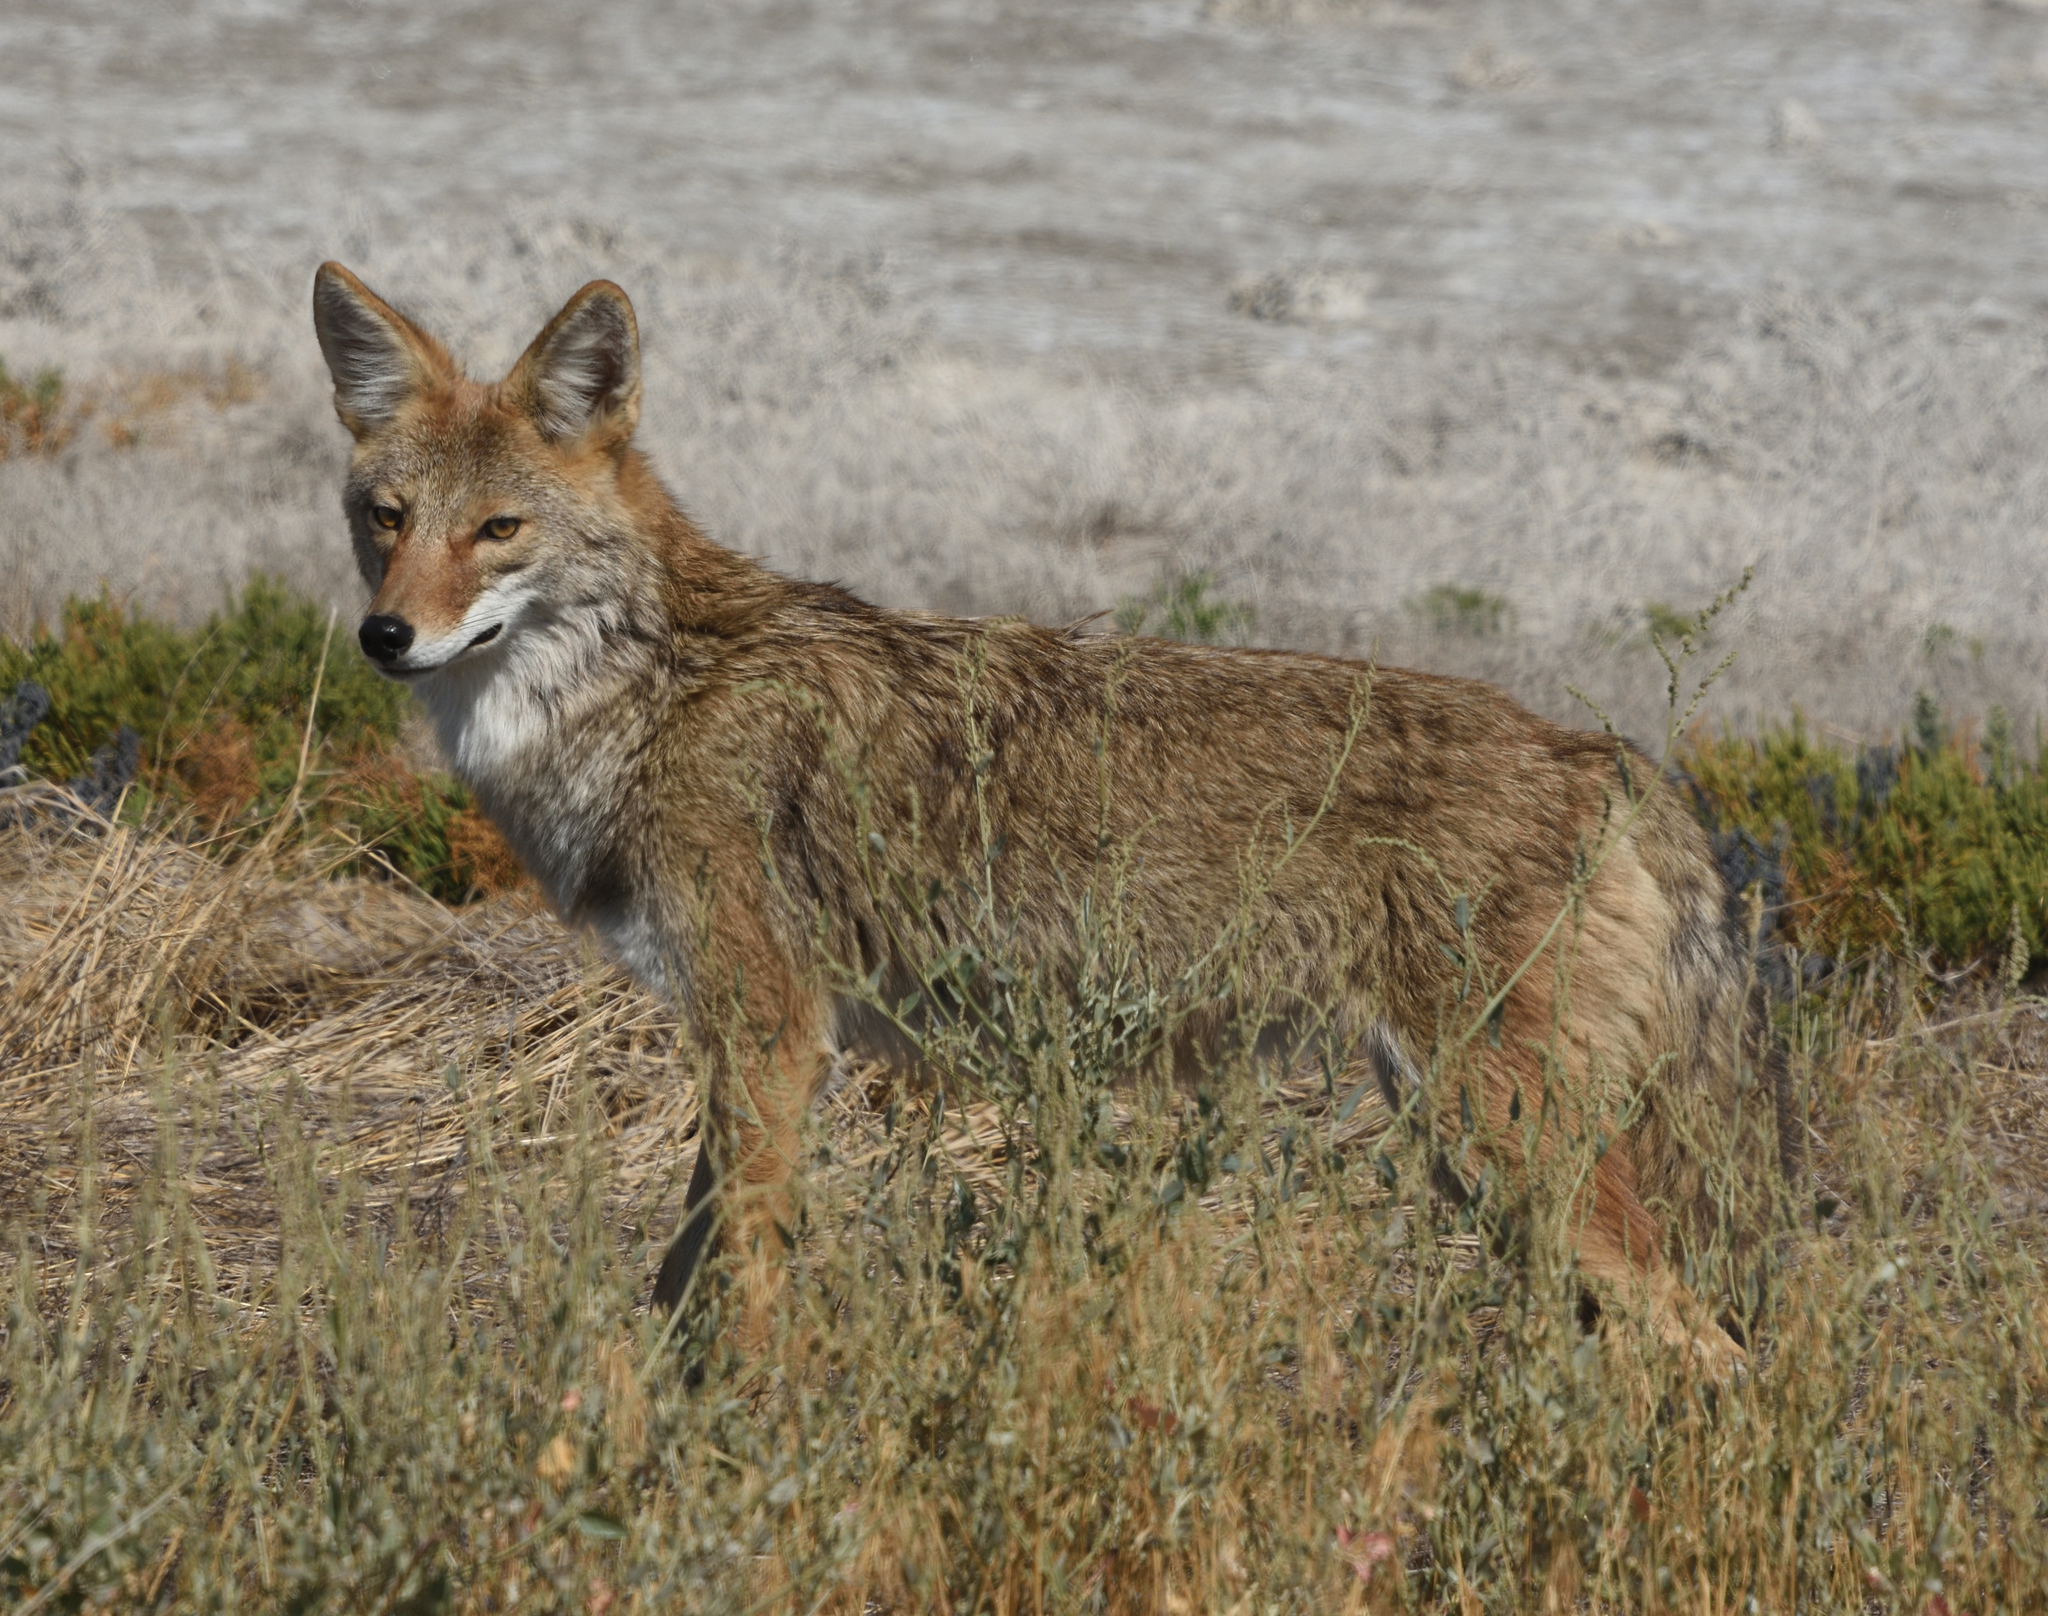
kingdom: Animalia
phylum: Chordata
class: Mammalia
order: Carnivora
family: Canidae
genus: Canis
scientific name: Canis latrans
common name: Coyote
